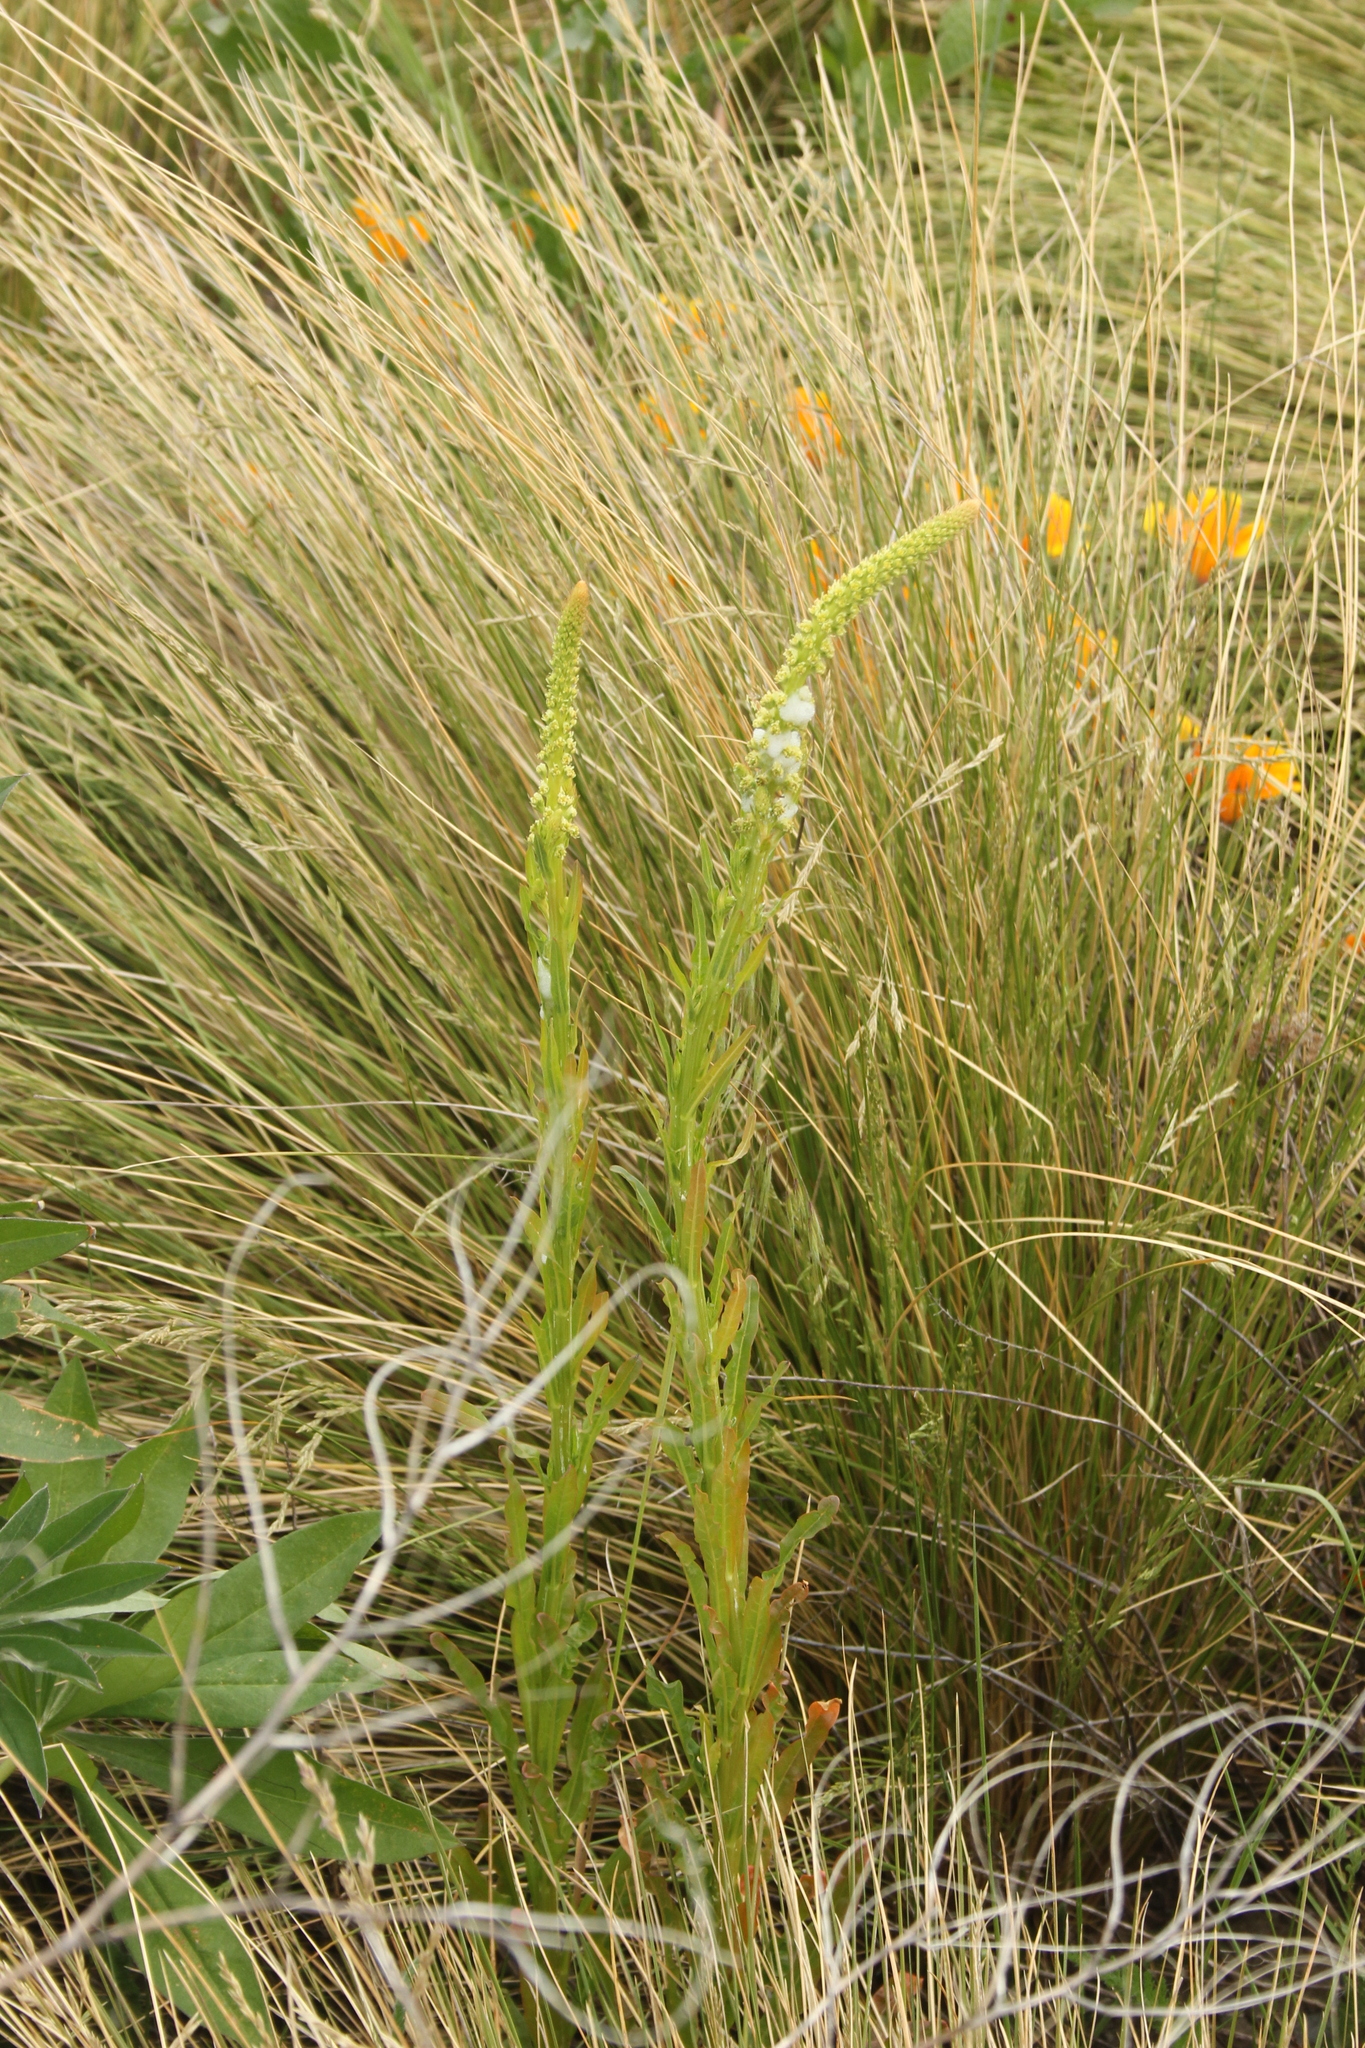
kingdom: Plantae
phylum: Tracheophyta
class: Magnoliopsida
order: Brassicales
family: Resedaceae
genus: Reseda
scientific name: Reseda luteola
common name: Weld
